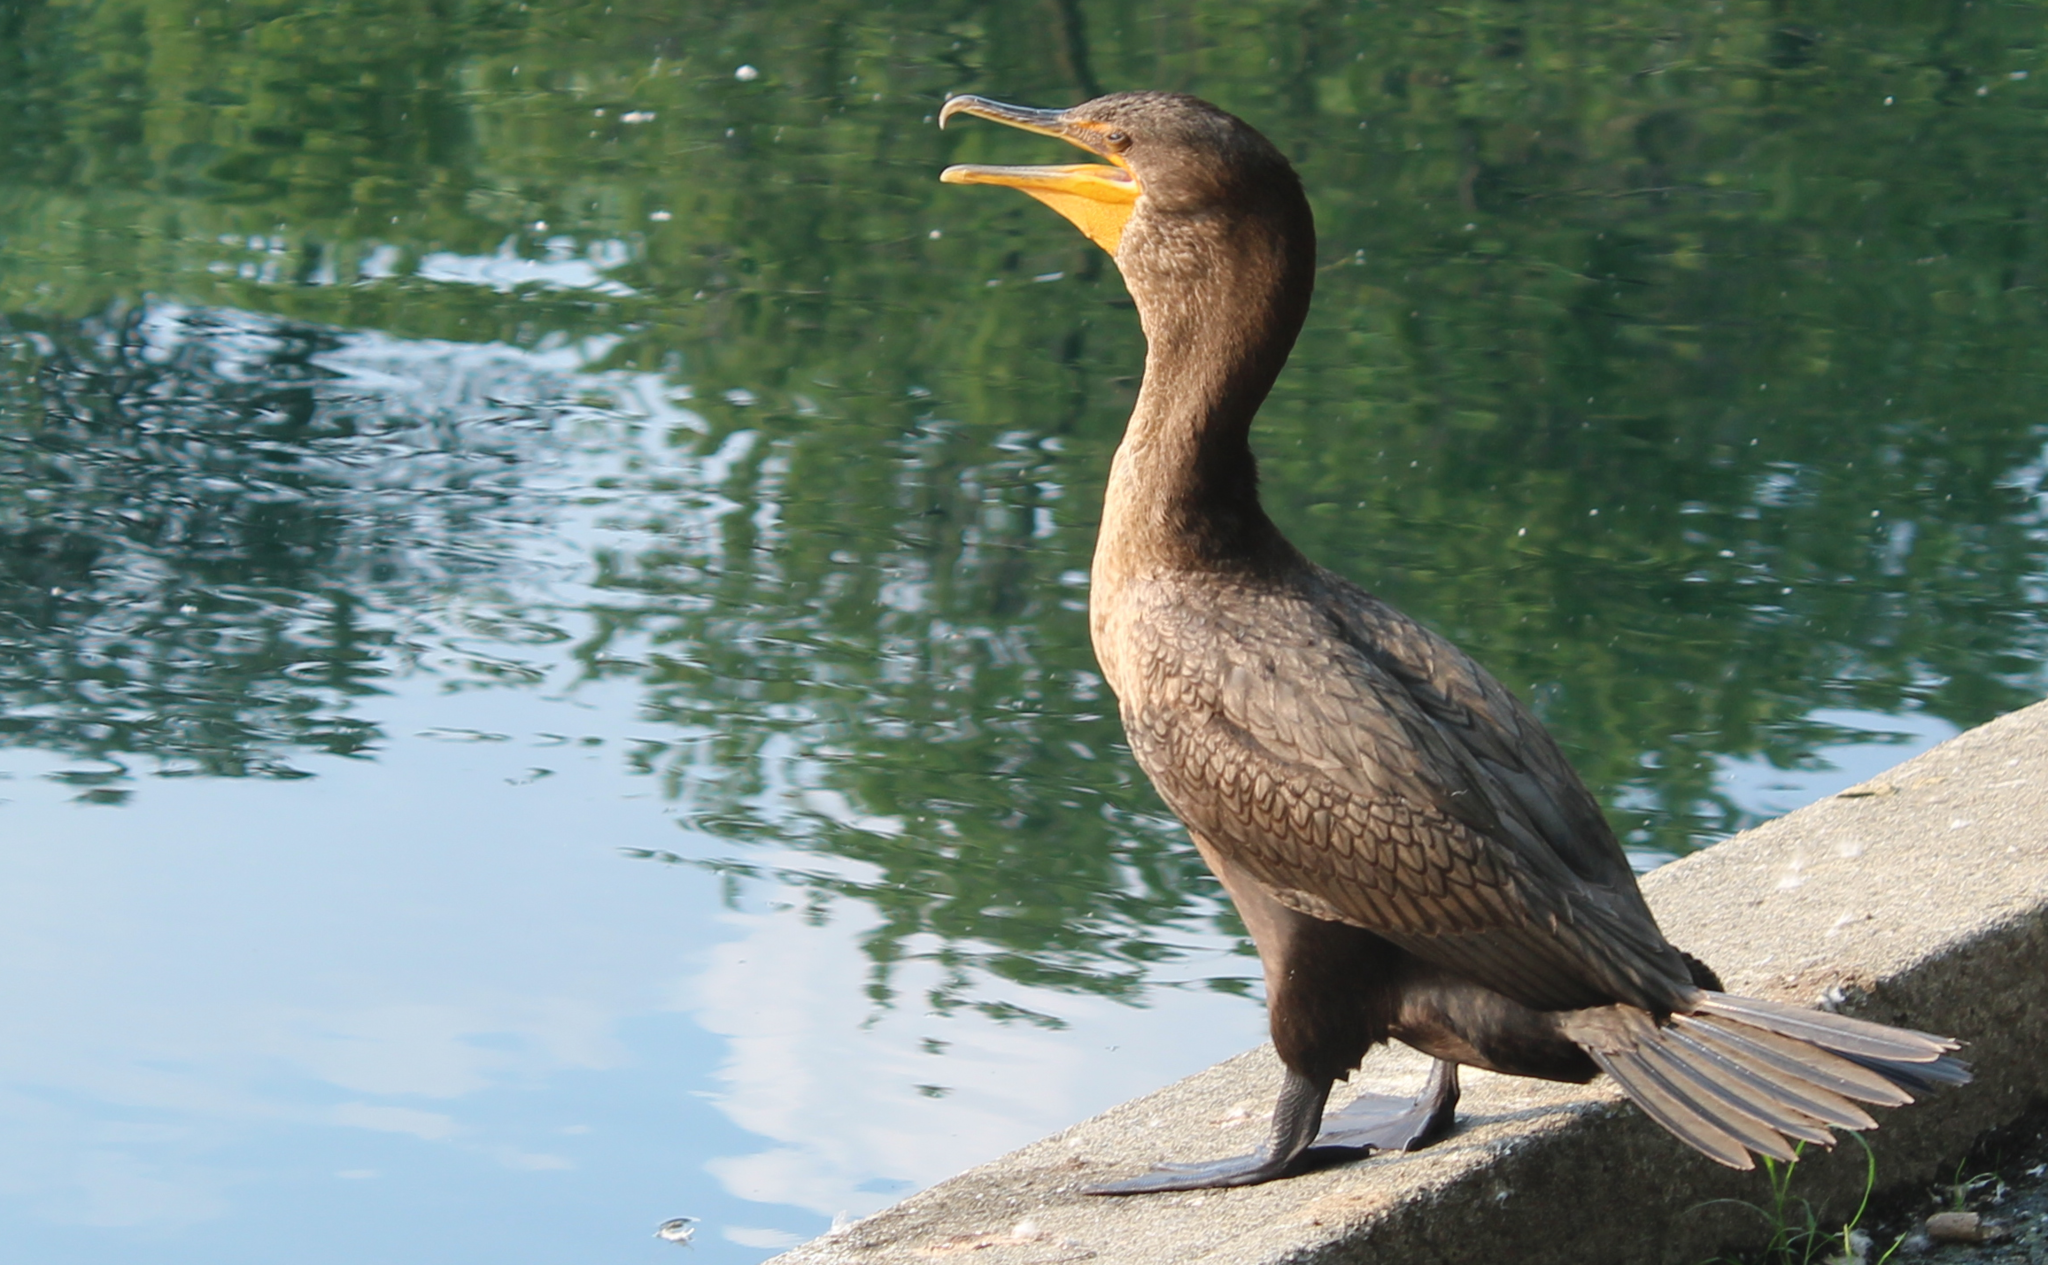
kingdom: Animalia
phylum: Chordata
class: Aves
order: Suliformes
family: Phalacrocoracidae
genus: Phalacrocorax
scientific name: Phalacrocorax auritus
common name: Double-crested cormorant
